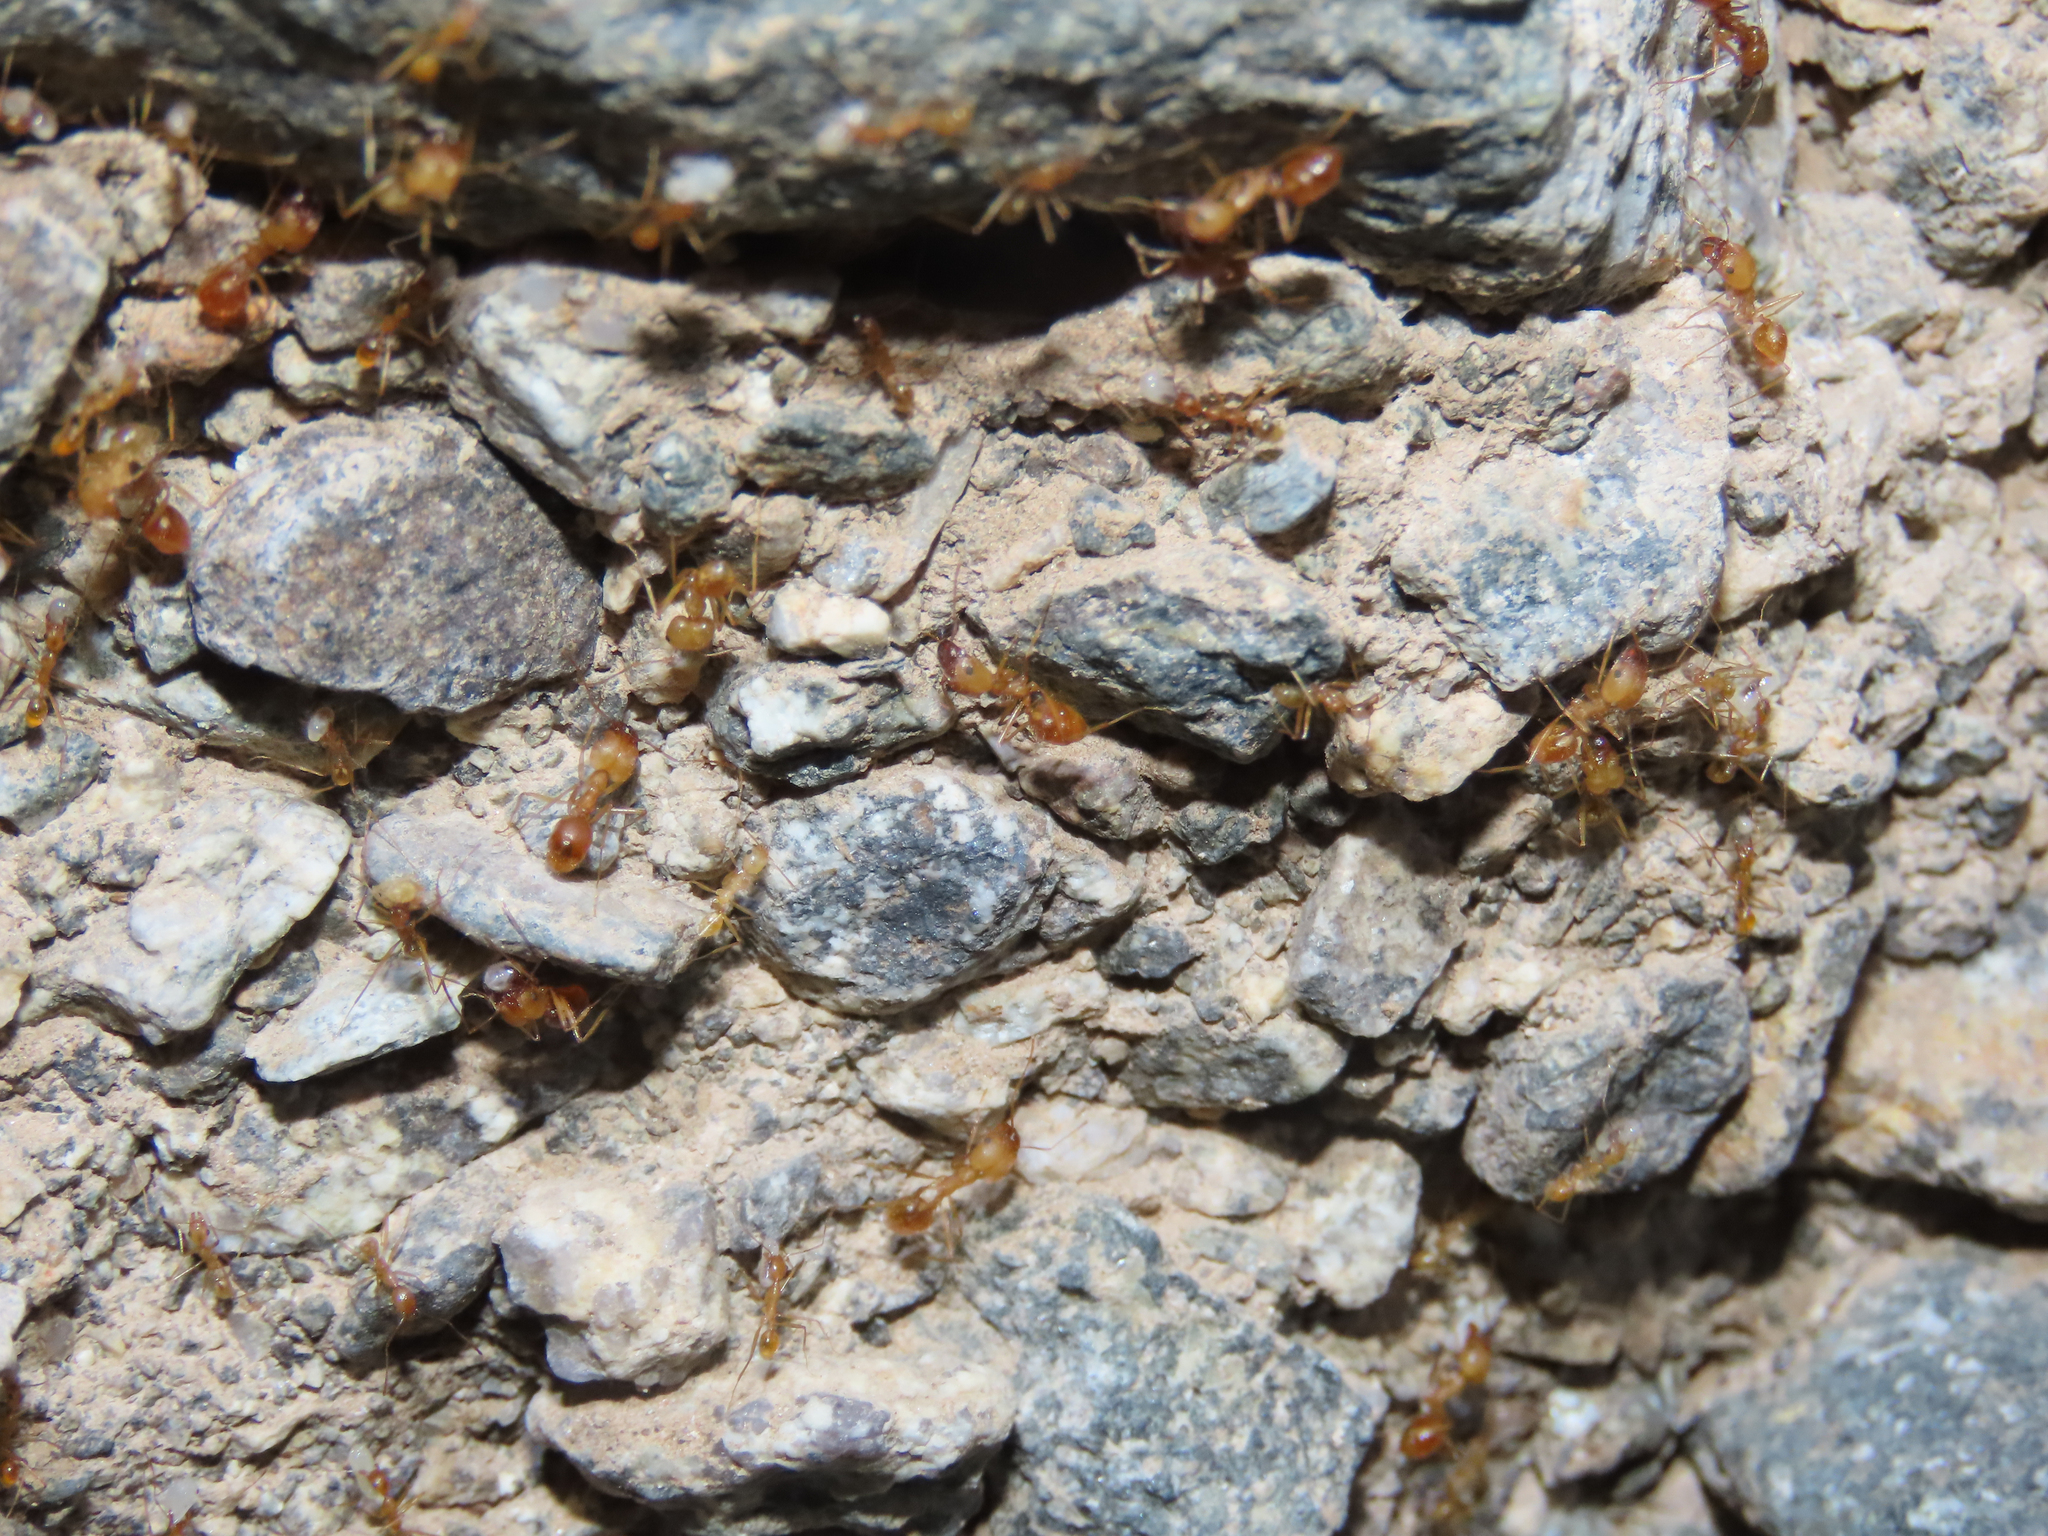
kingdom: Animalia
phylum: Arthropoda
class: Insecta
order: Hymenoptera
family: Formicidae
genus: Pheidole
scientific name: Pheidole vistana
